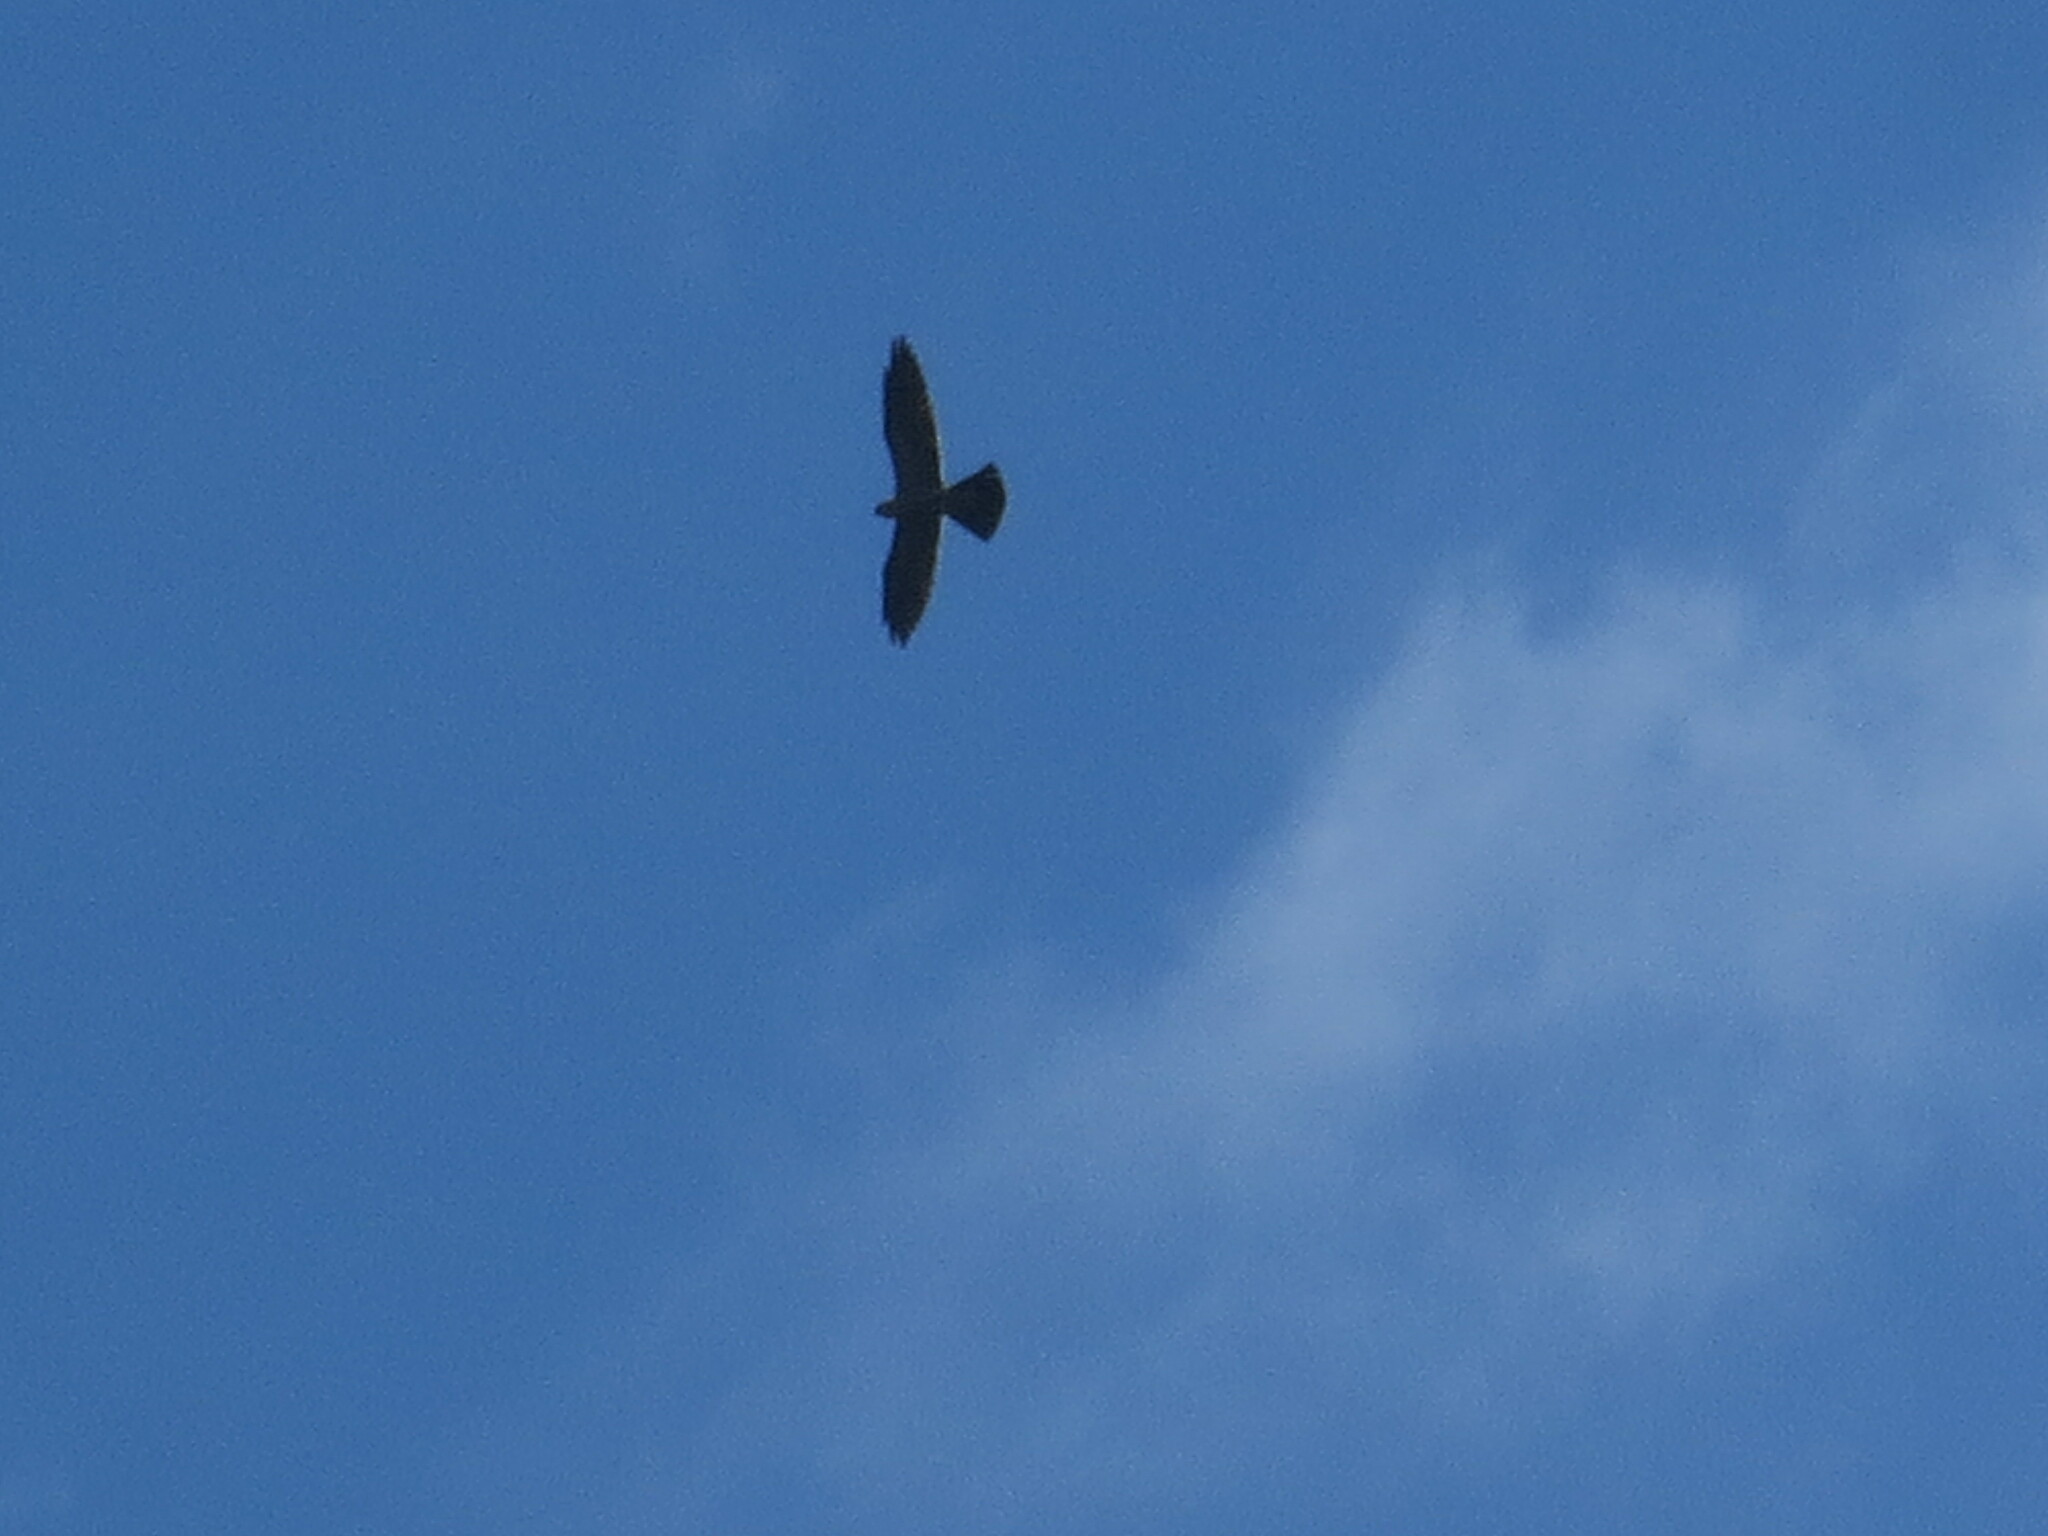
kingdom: Animalia
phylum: Chordata
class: Aves
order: Accipitriformes
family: Accipitridae
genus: Ictinia
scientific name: Ictinia mississippiensis
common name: Mississippi kite
